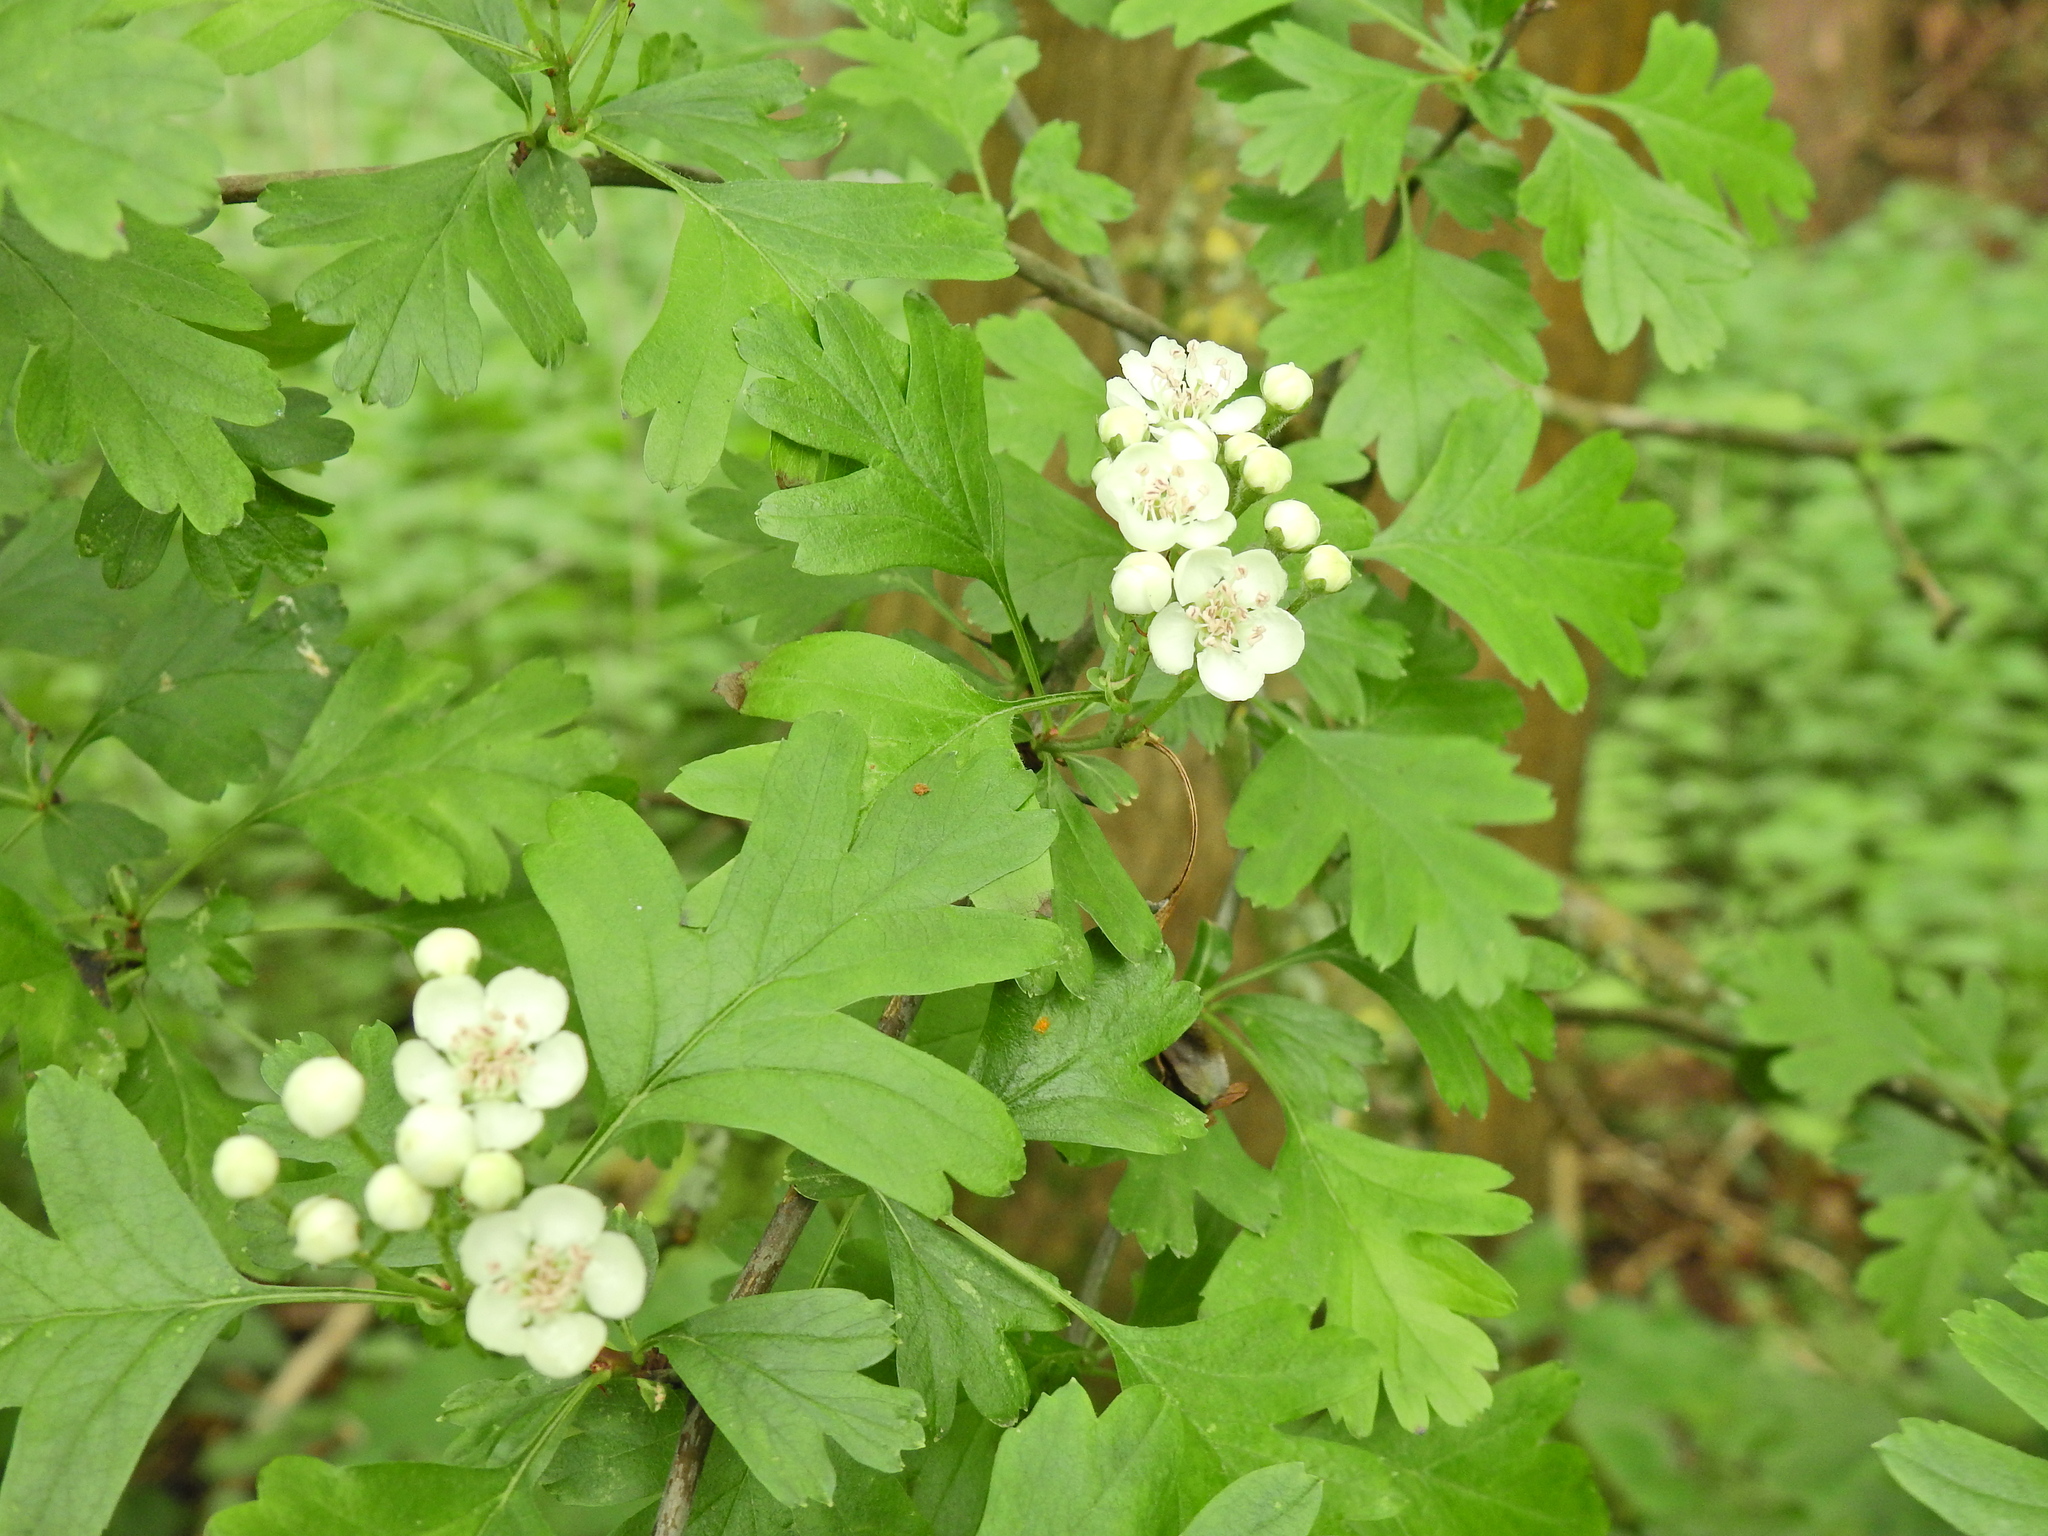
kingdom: Plantae
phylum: Tracheophyta
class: Magnoliopsida
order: Rosales
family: Rosaceae
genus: Crataegus
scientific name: Crataegus monogyna
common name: Hawthorn
